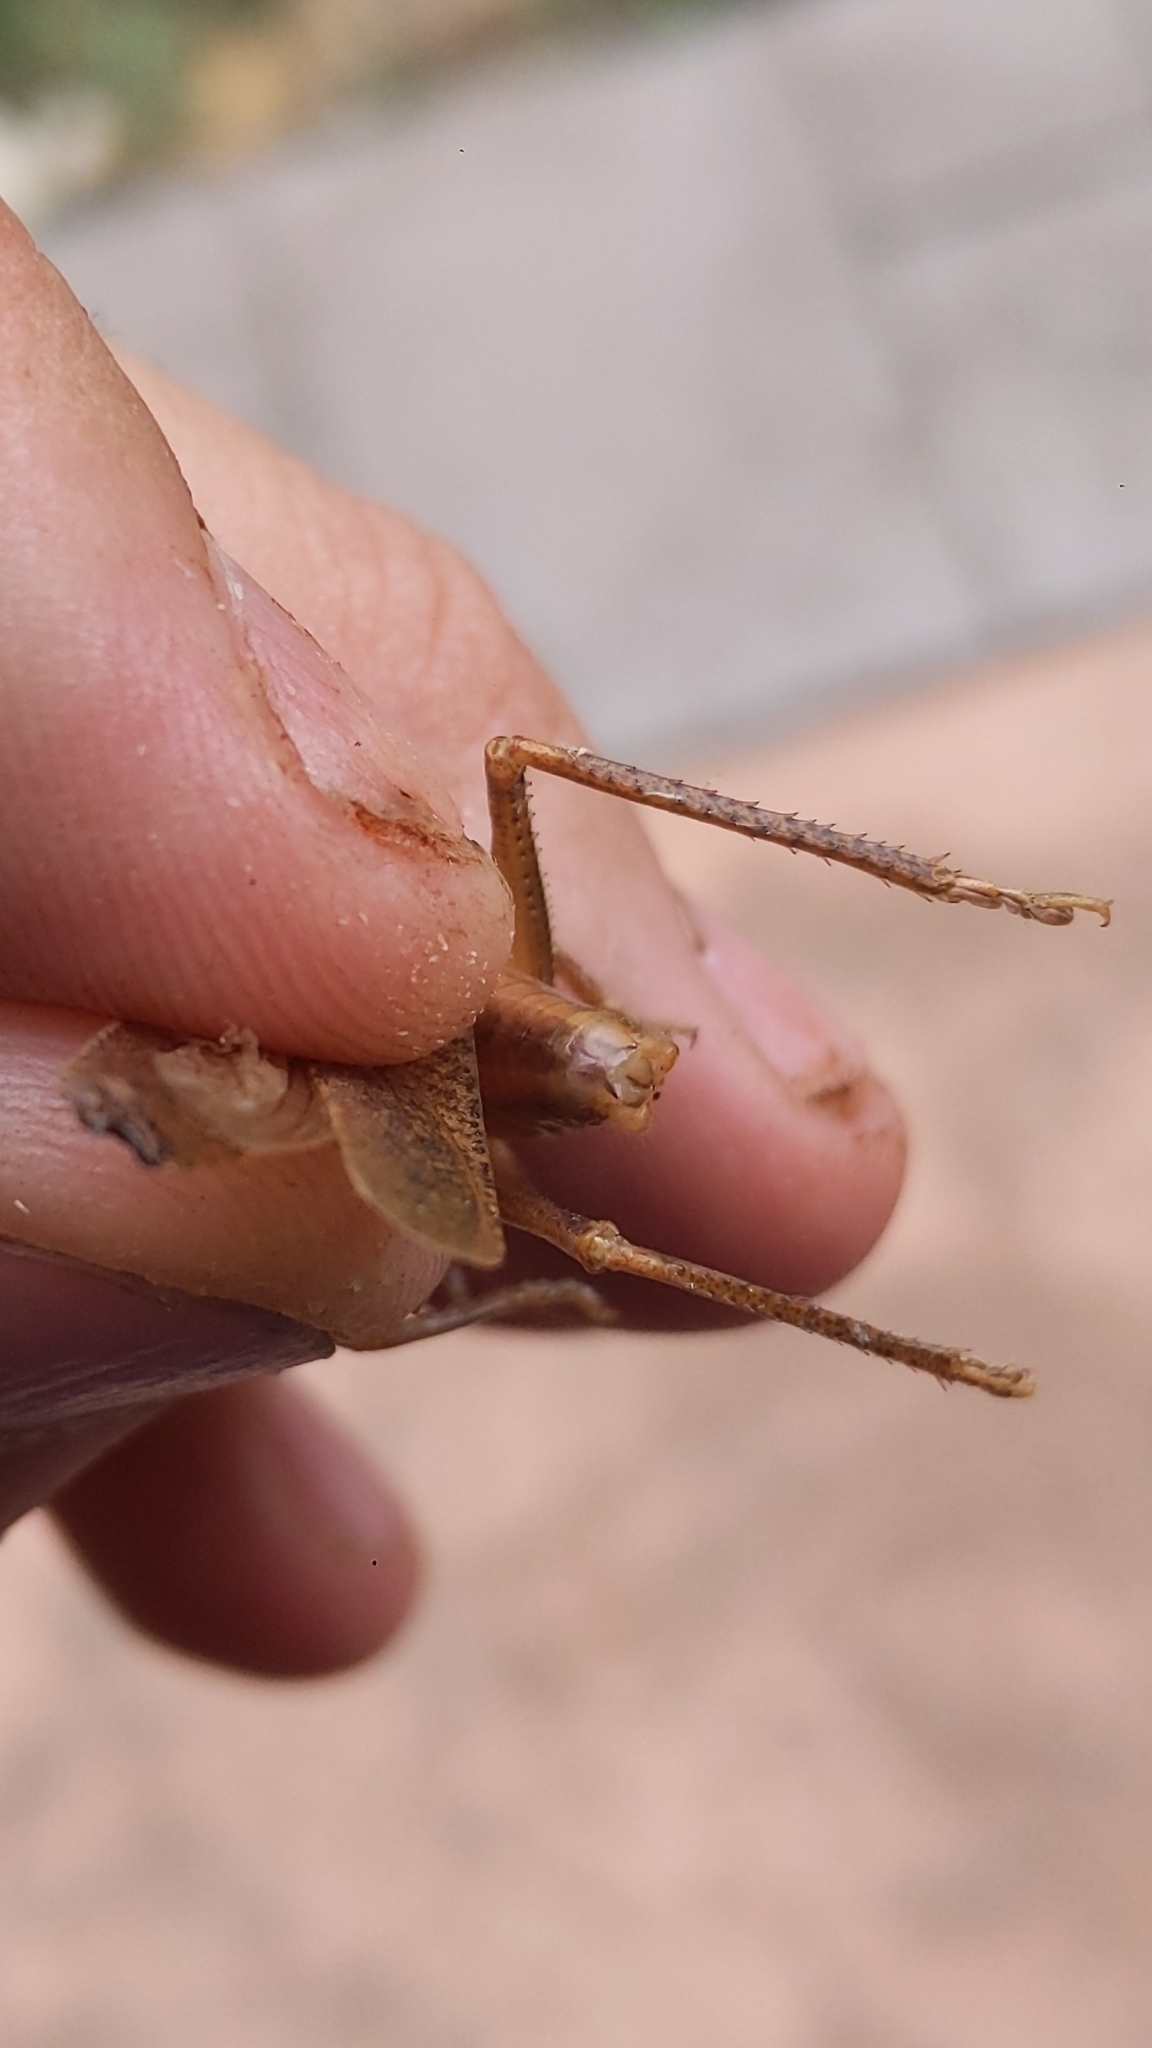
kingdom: Animalia
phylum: Arthropoda
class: Insecta
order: Orthoptera
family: Tettigoniidae
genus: Pyrgocorypha
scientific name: Pyrgocorypha uncinata
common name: Hook-faced conehead
